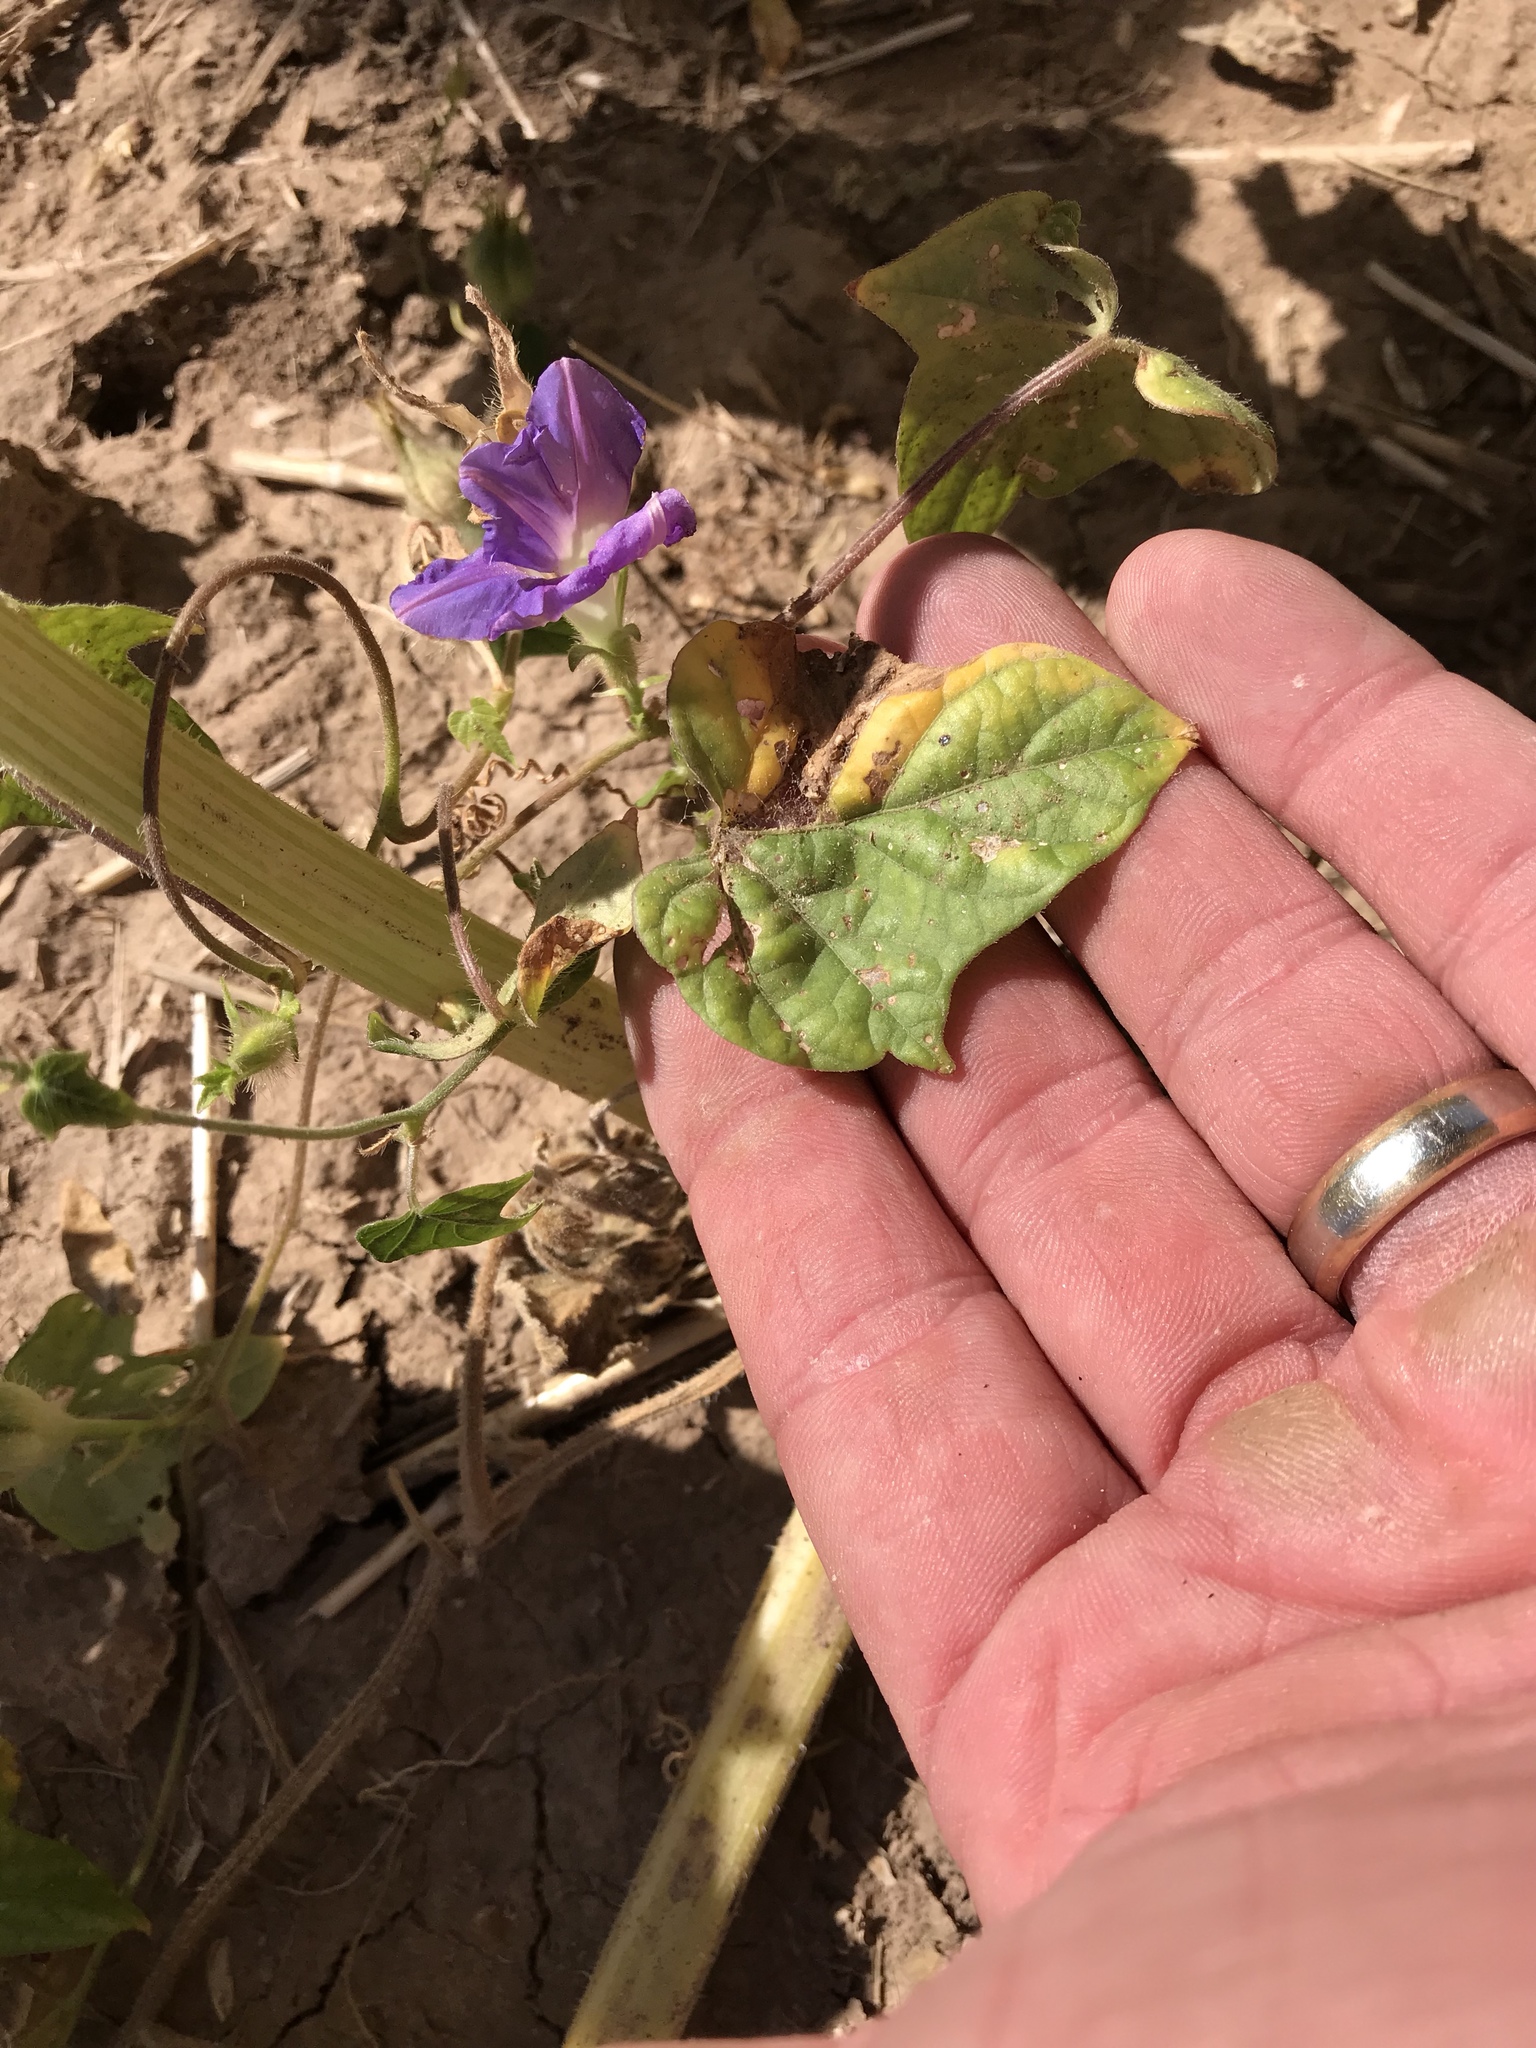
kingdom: Plantae
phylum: Tracheophyta
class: Magnoliopsida
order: Solanales
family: Convolvulaceae
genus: Ipomoea
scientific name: Ipomoea hederacea
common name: Ivy-leaved morning-glory
